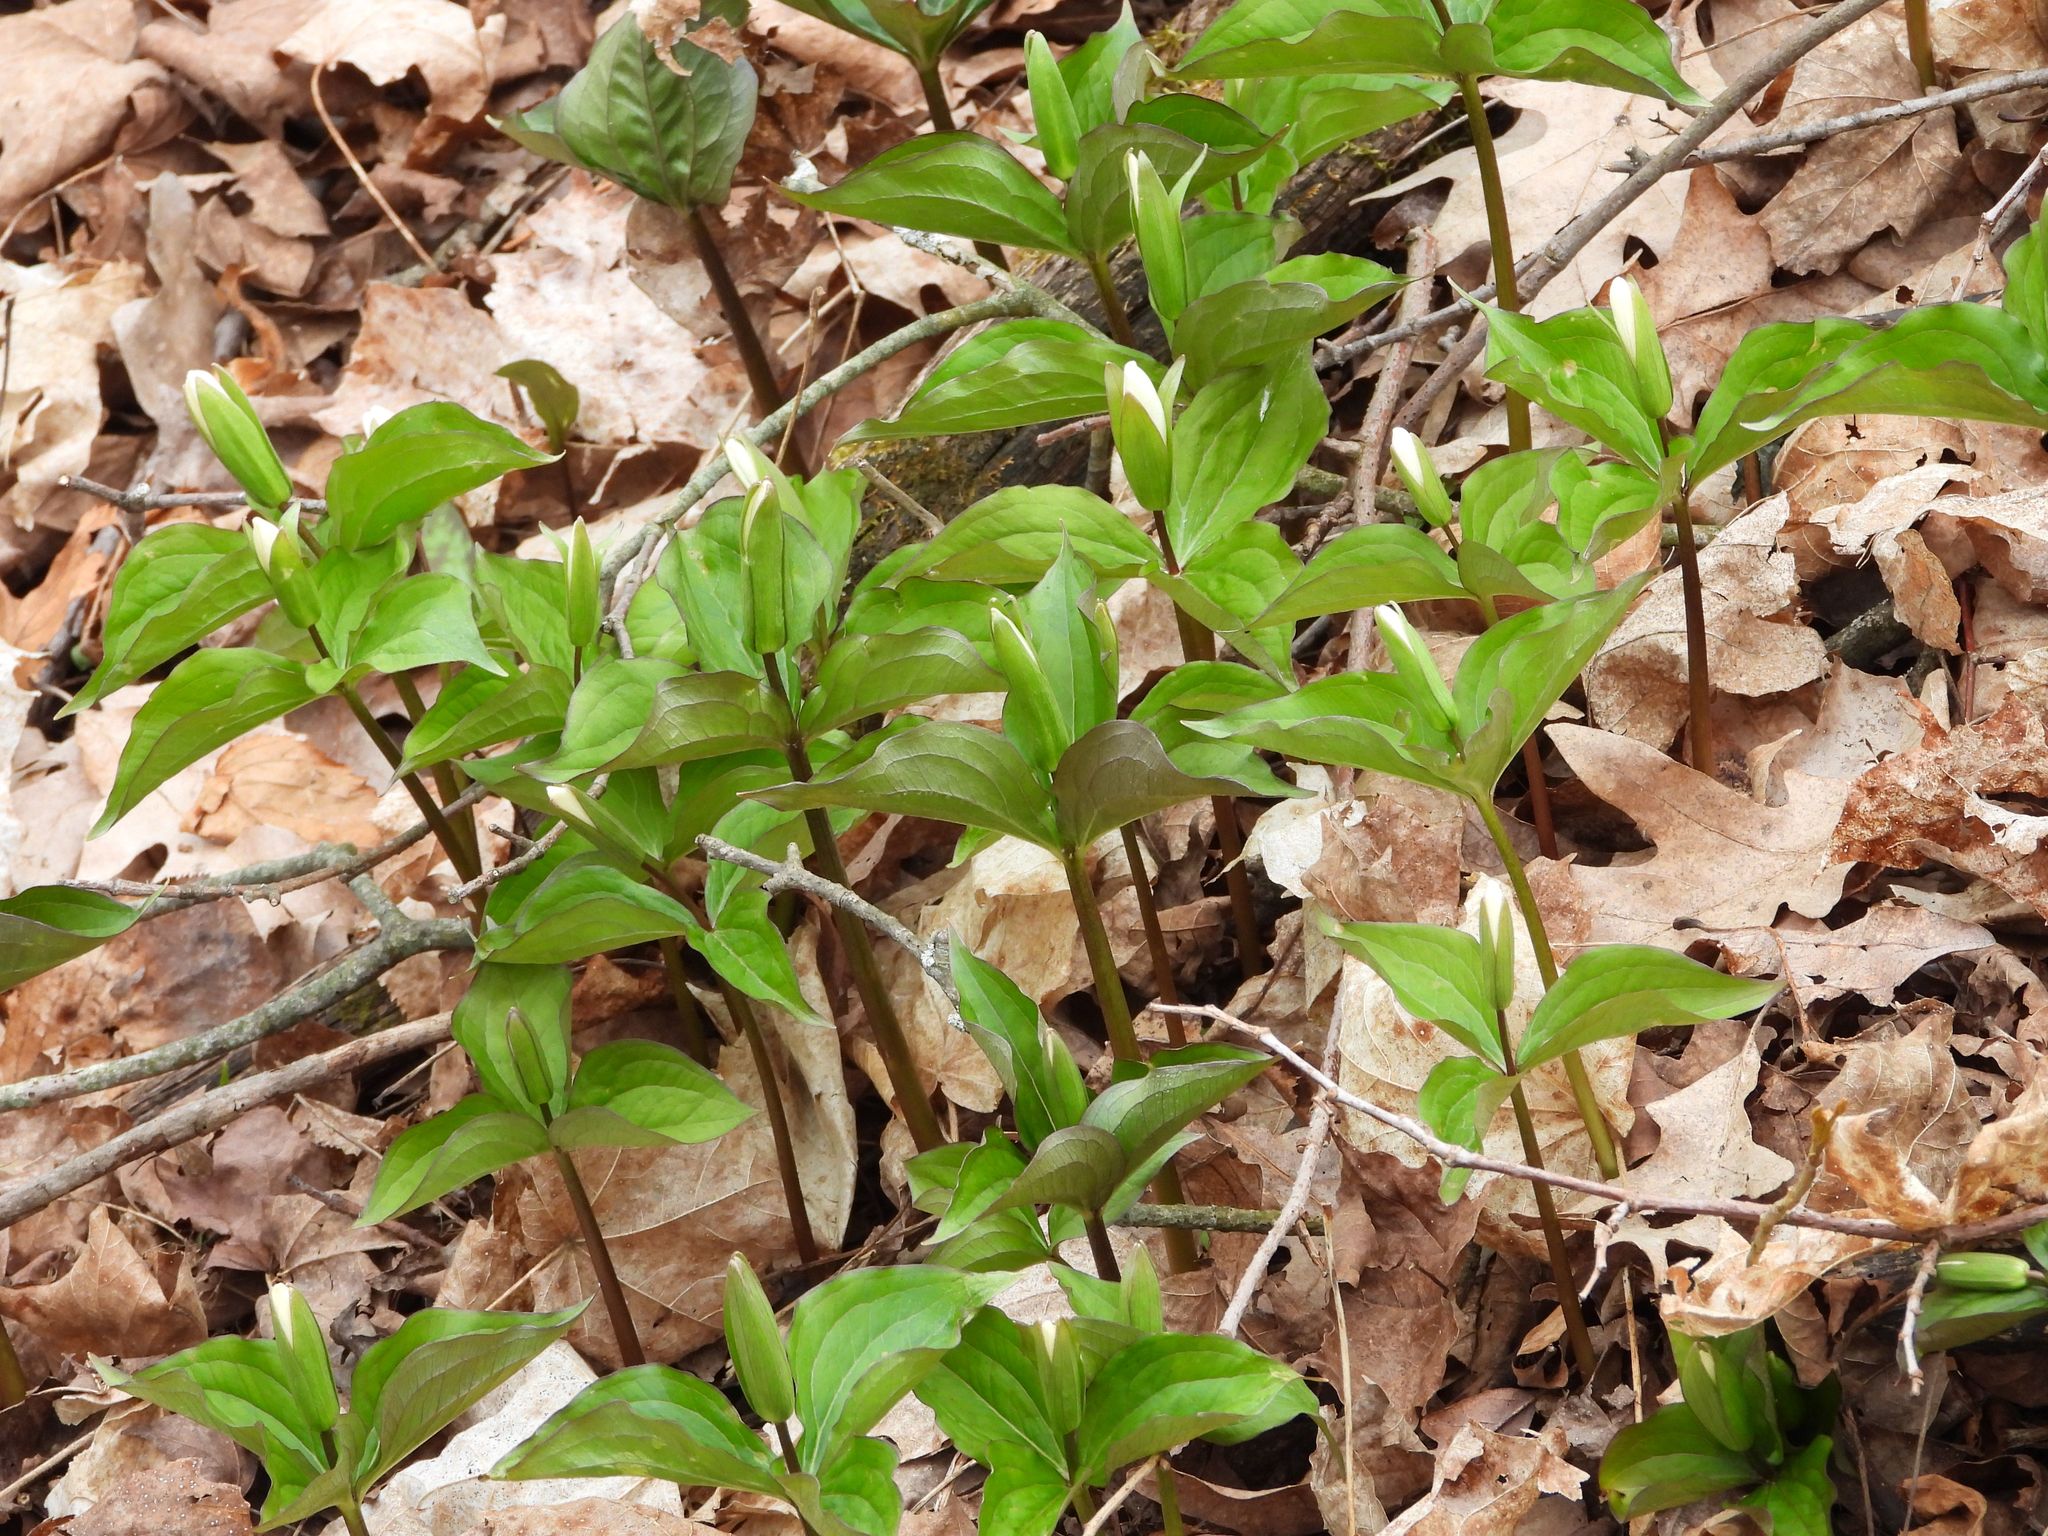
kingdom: Plantae
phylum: Tracheophyta
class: Liliopsida
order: Liliales
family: Melanthiaceae
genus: Trillium
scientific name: Trillium grandiflorum
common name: Great white trillium
